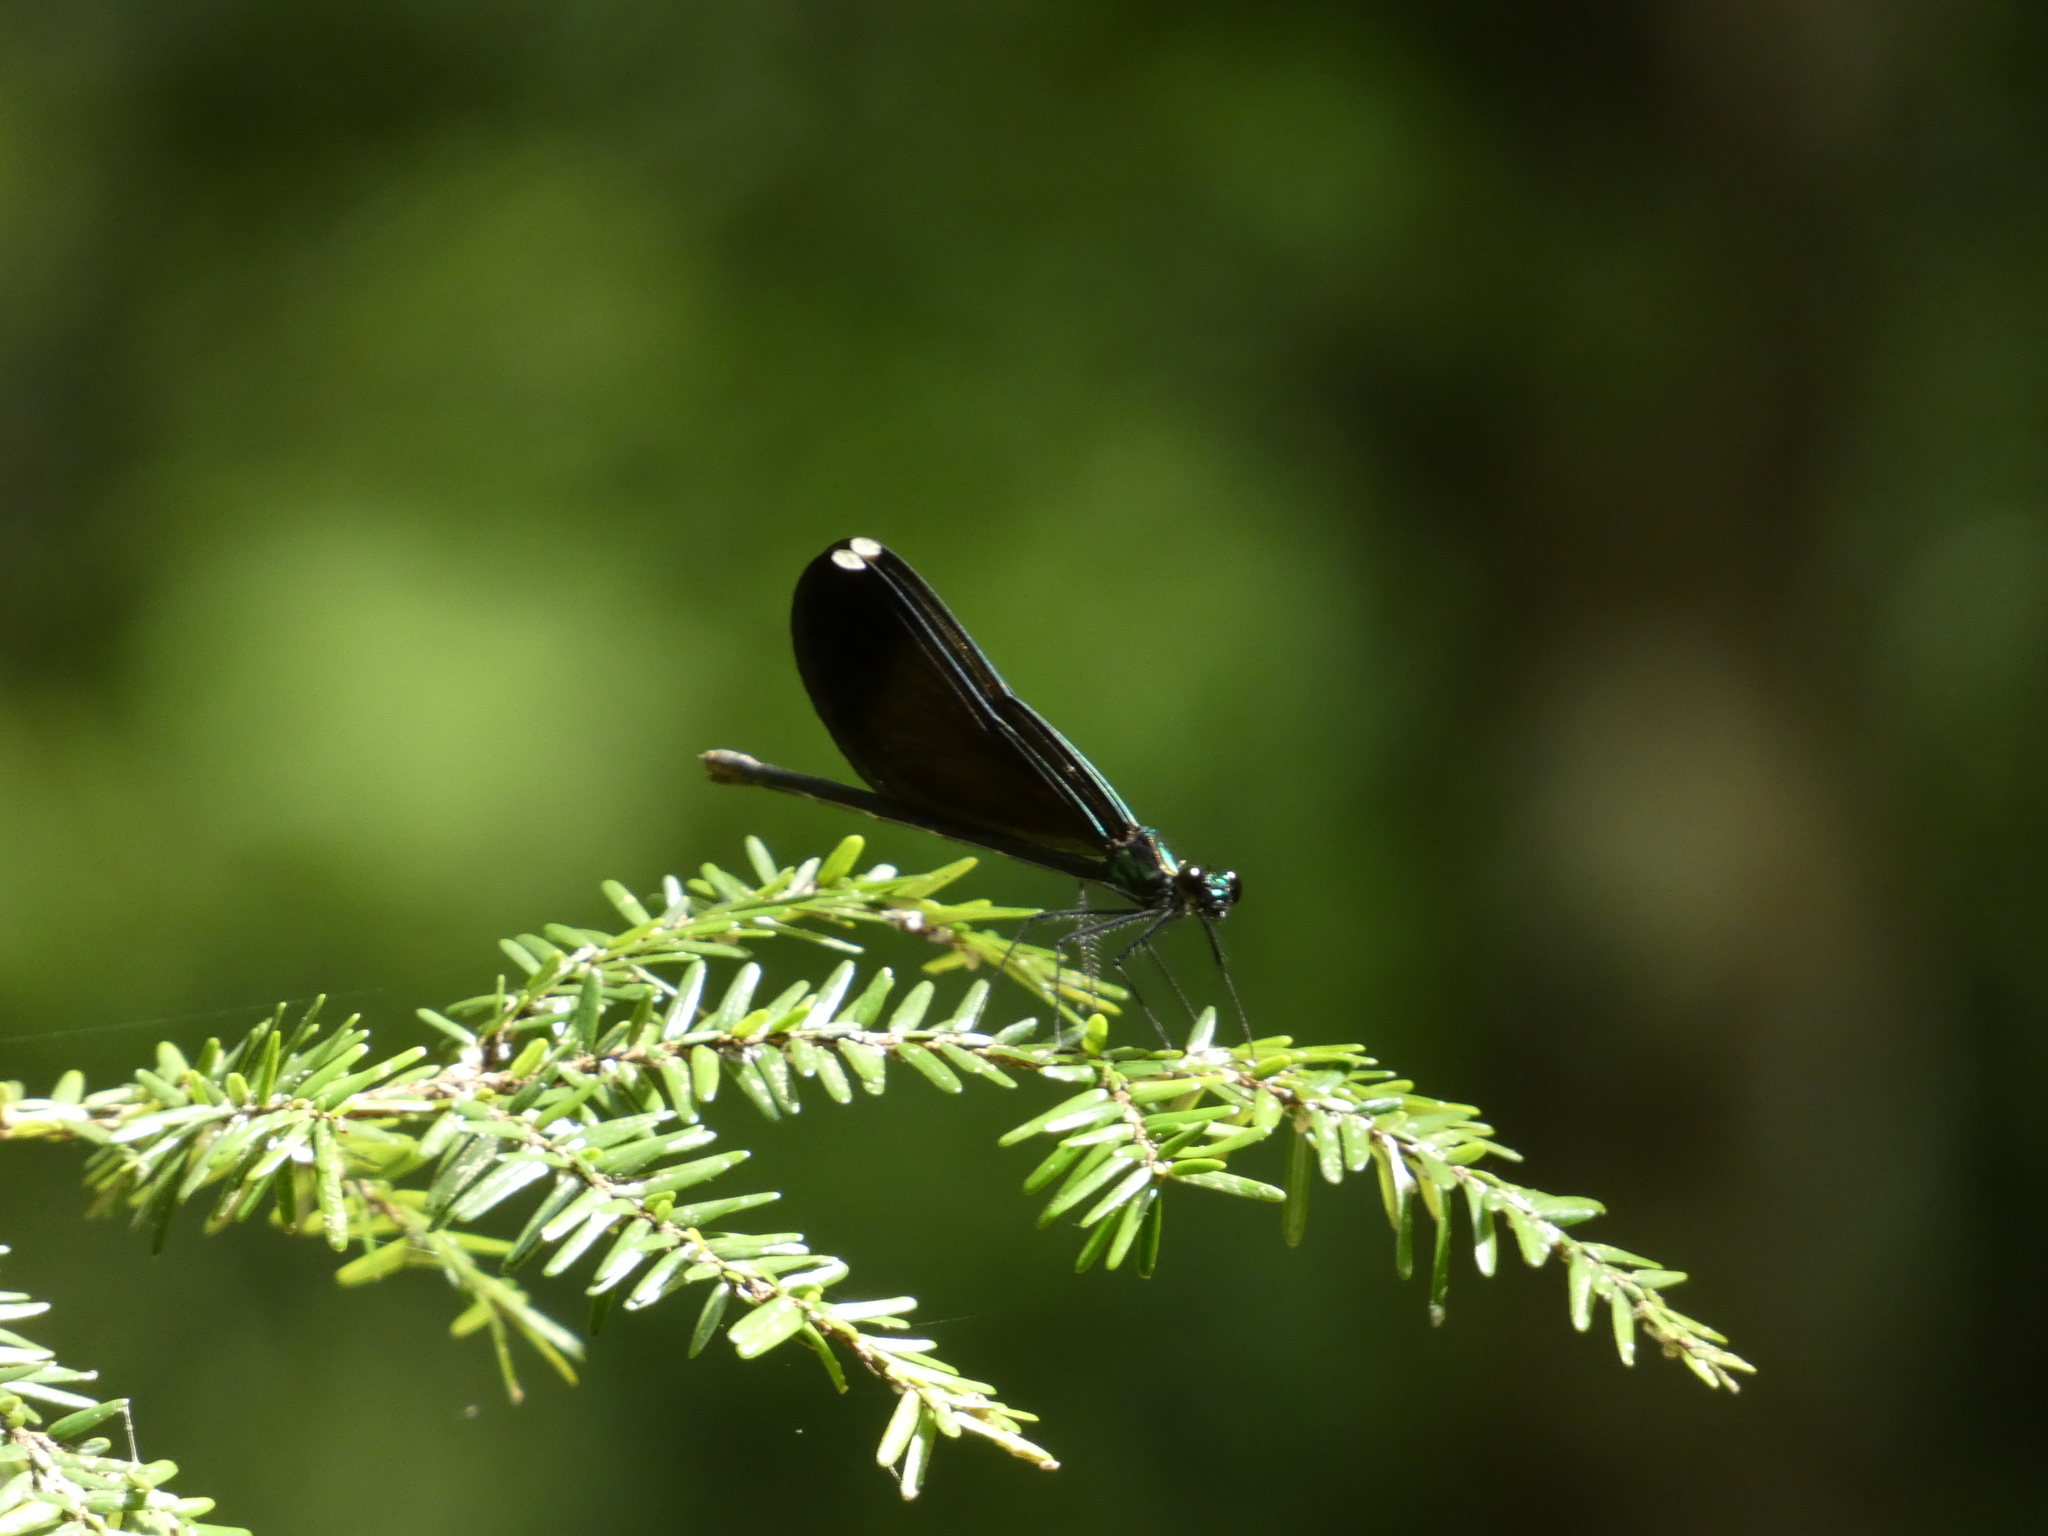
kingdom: Plantae
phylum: Tracheophyta
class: Pinopsida
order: Pinales
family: Pinaceae
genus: Tsuga
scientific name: Tsuga canadensis
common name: Eastern hemlock
